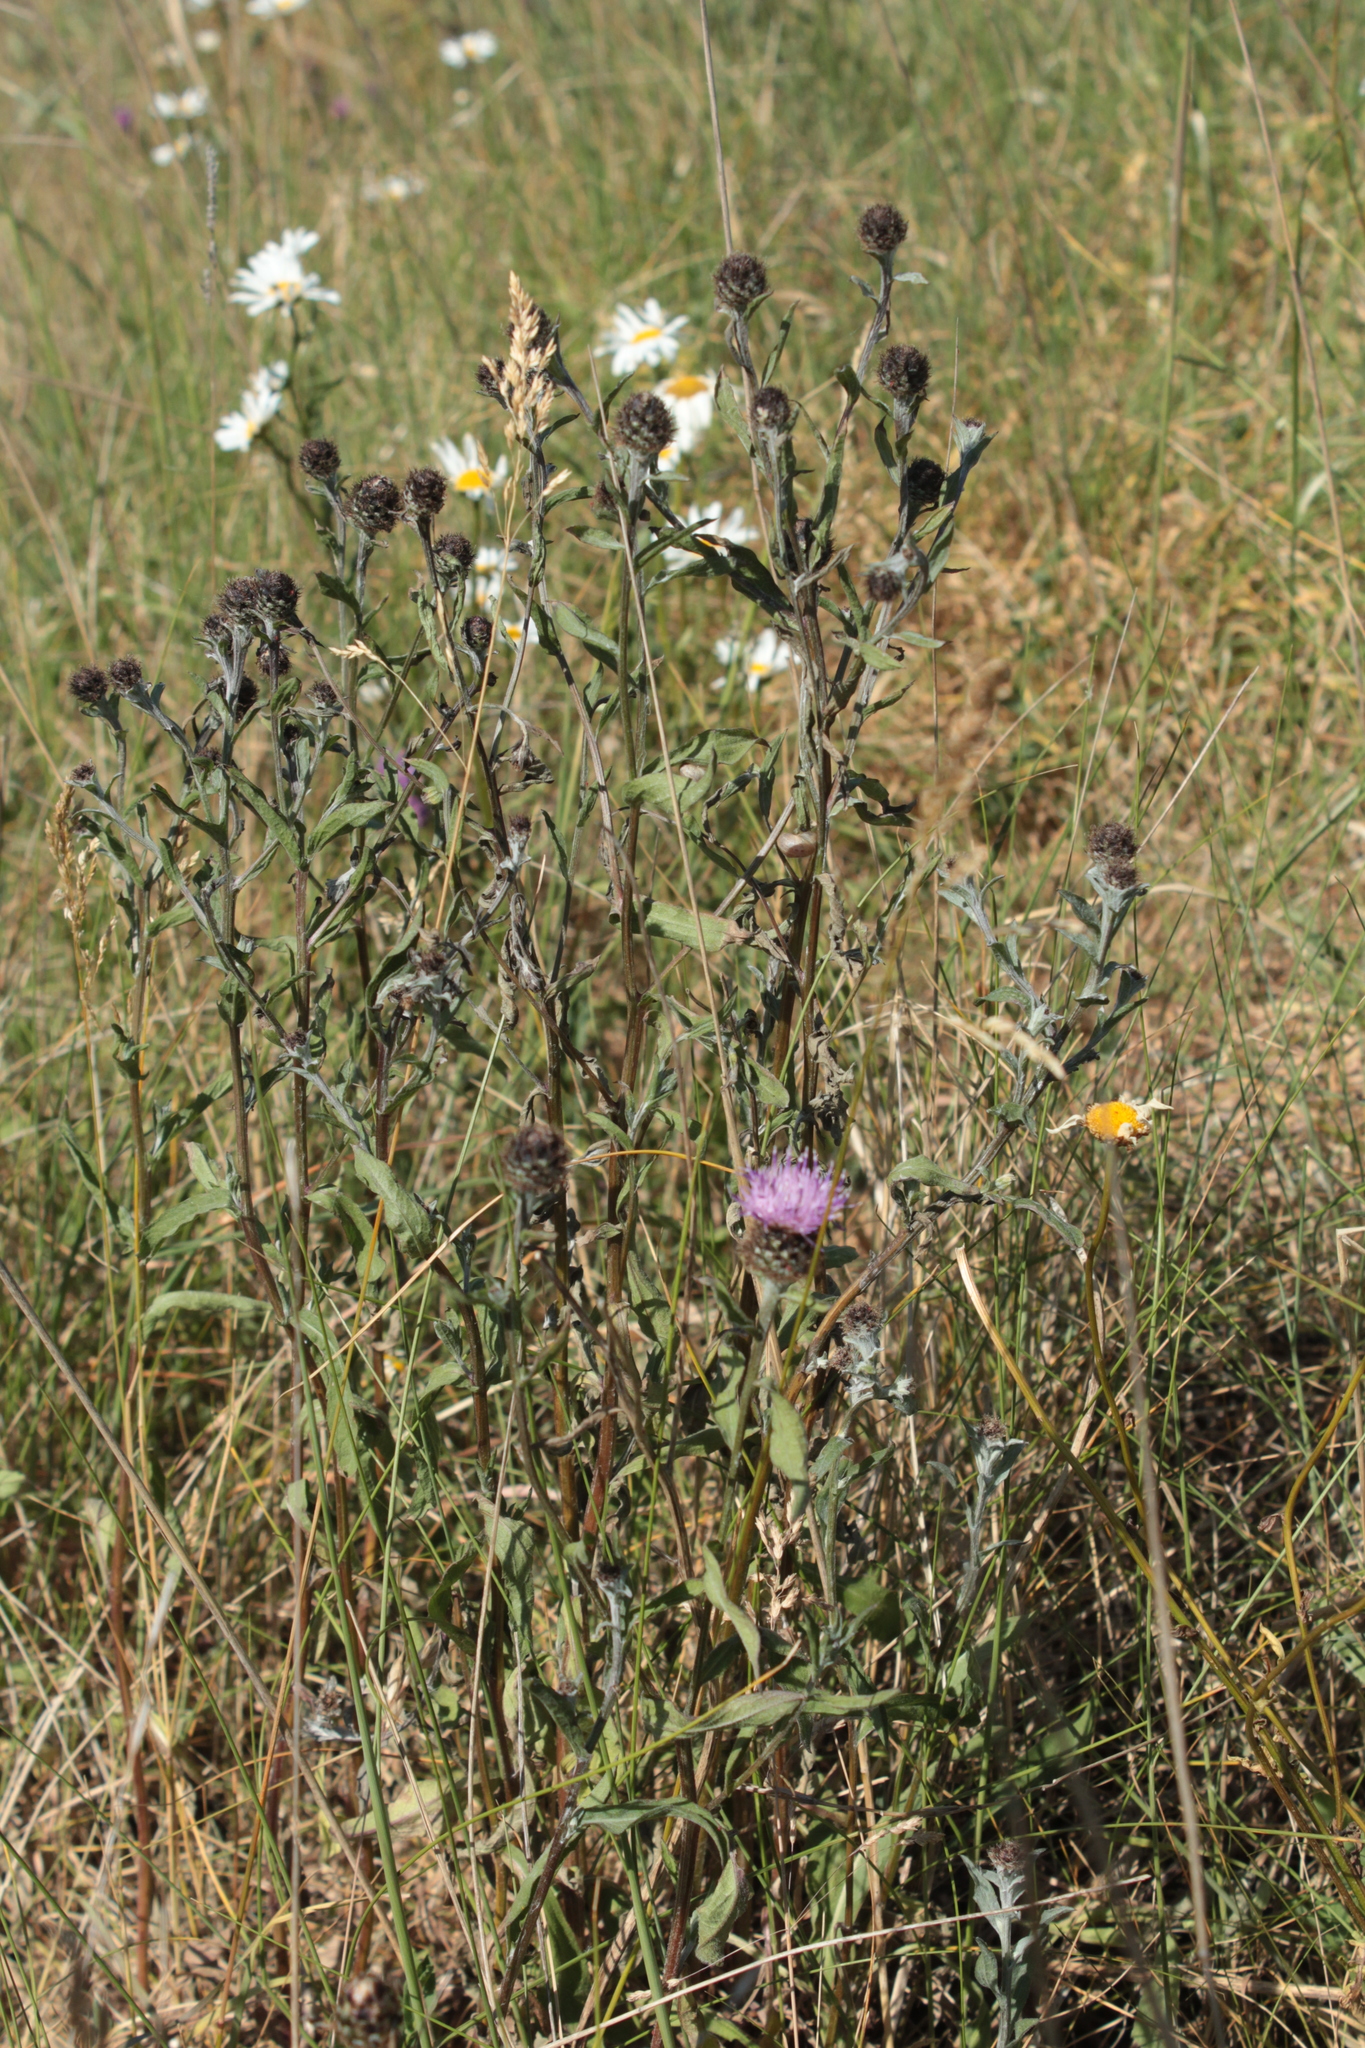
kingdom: Plantae
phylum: Tracheophyta
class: Magnoliopsida
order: Asterales
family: Asteraceae
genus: Centaurea
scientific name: Centaurea nigra
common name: Lesser knapweed
